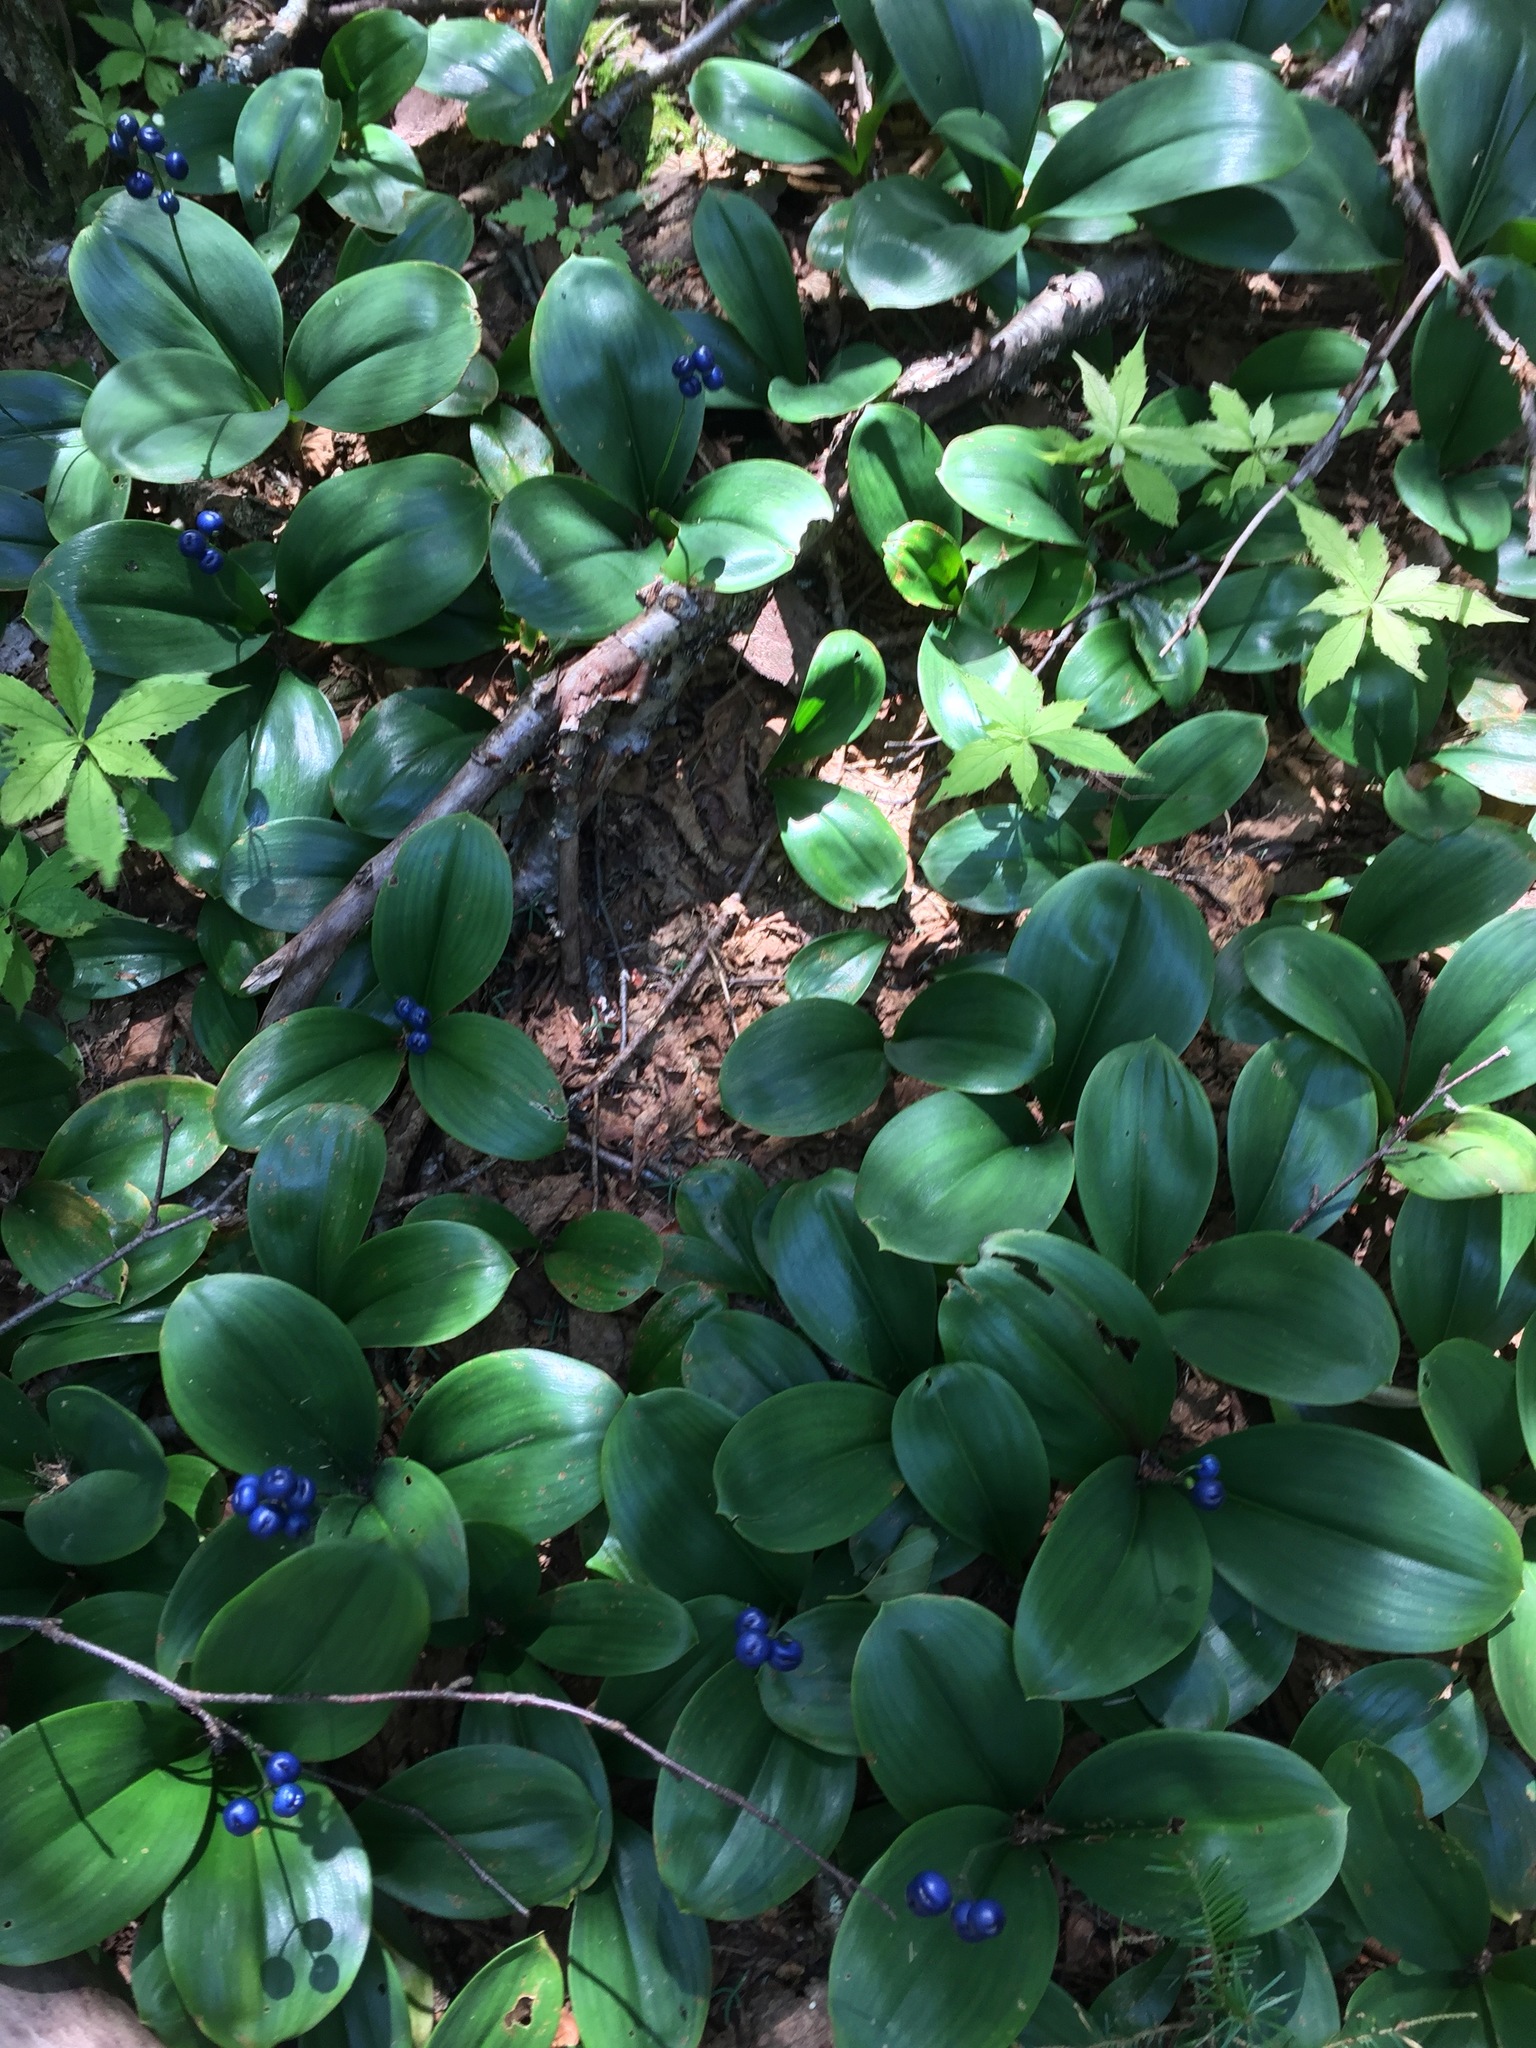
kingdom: Plantae
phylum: Tracheophyta
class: Liliopsida
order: Liliales
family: Liliaceae
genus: Clintonia
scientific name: Clintonia borealis
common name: Yellow clintonia
